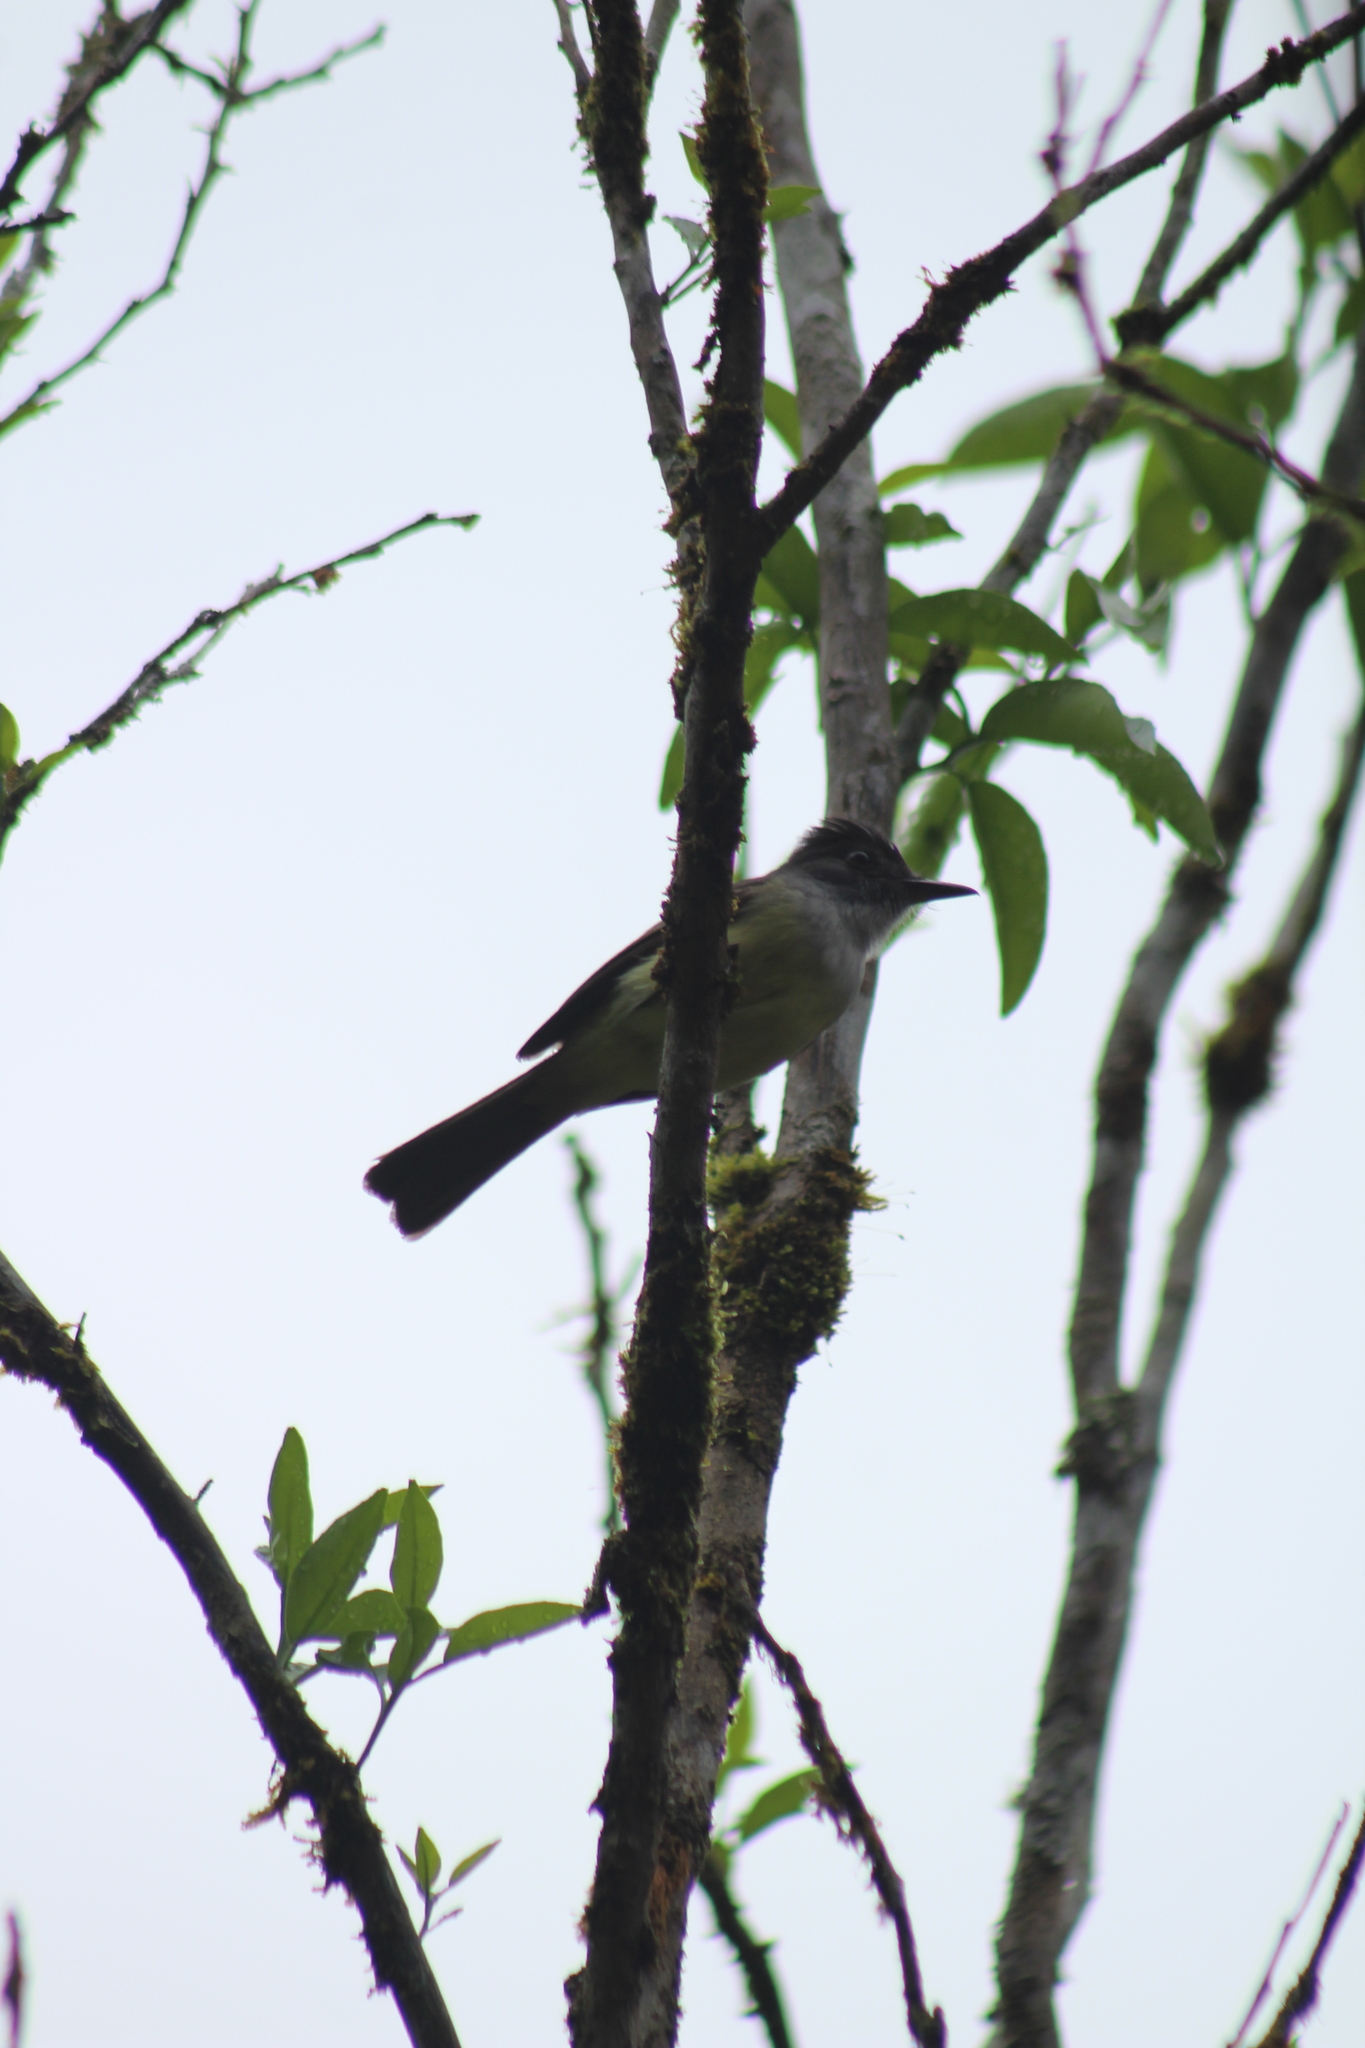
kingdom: Animalia
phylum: Chordata
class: Aves
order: Passeriformes
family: Tyrannidae
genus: Myiarchus
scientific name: Myiarchus tuberculifer
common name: Dusky-capped flycatcher
